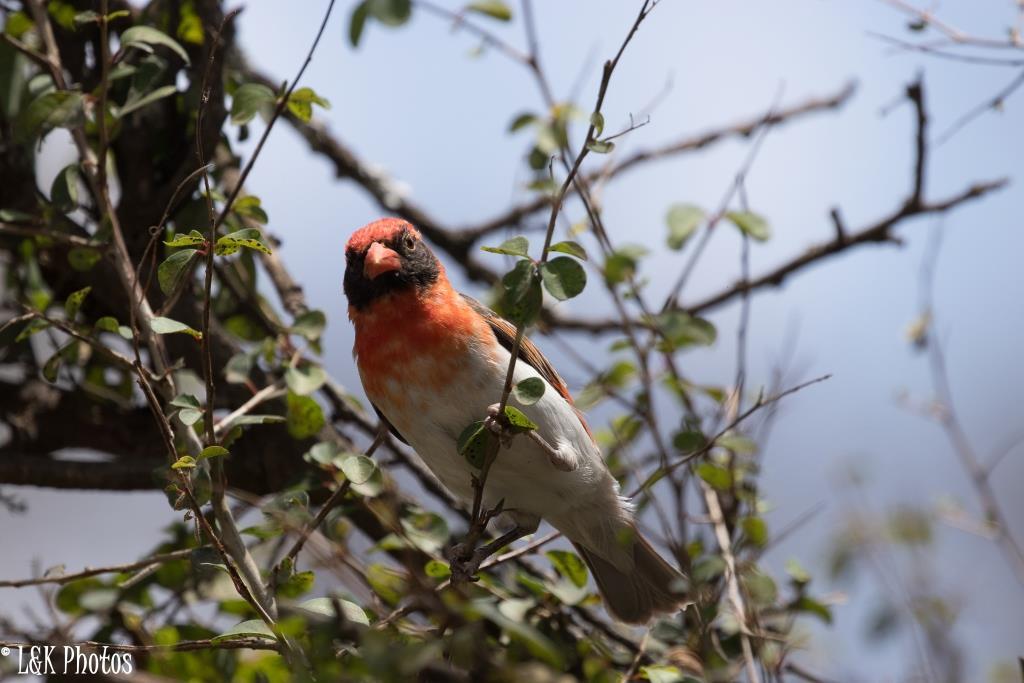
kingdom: Animalia
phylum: Chordata
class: Aves
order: Passeriformes
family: Ploceidae
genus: Anaplectes
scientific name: Anaplectes rubriceps
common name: Red-headed weaver
